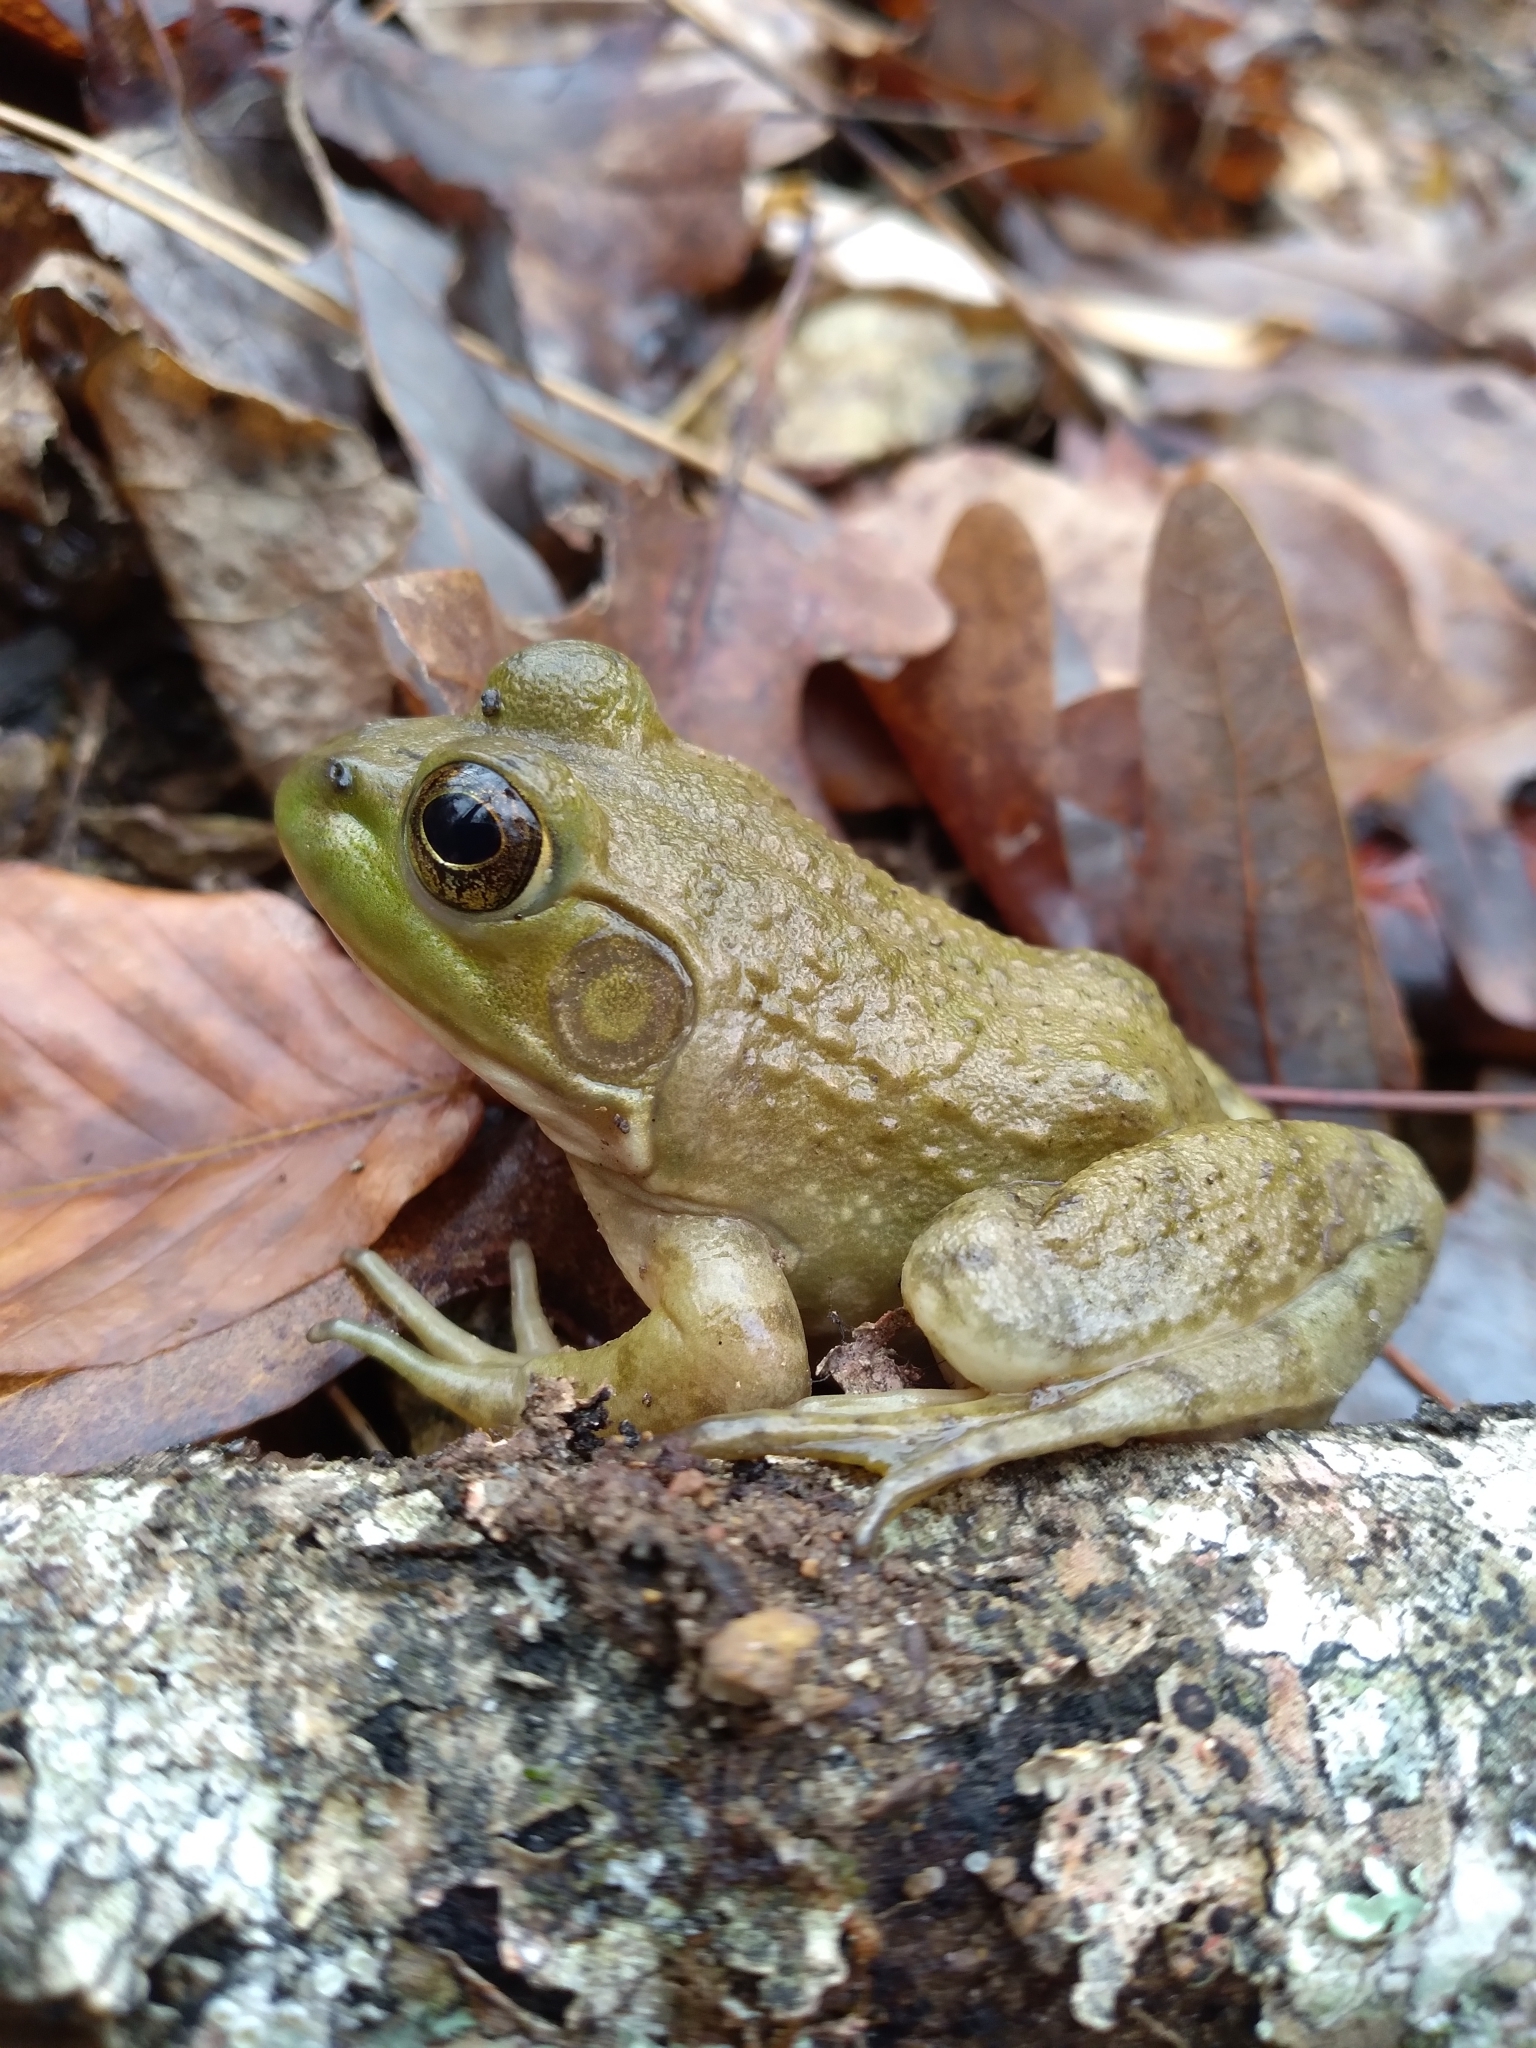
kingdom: Animalia
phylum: Chordata
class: Amphibia
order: Anura
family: Ranidae
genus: Lithobates
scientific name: Lithobates catesbeianus
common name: American bullfrog
